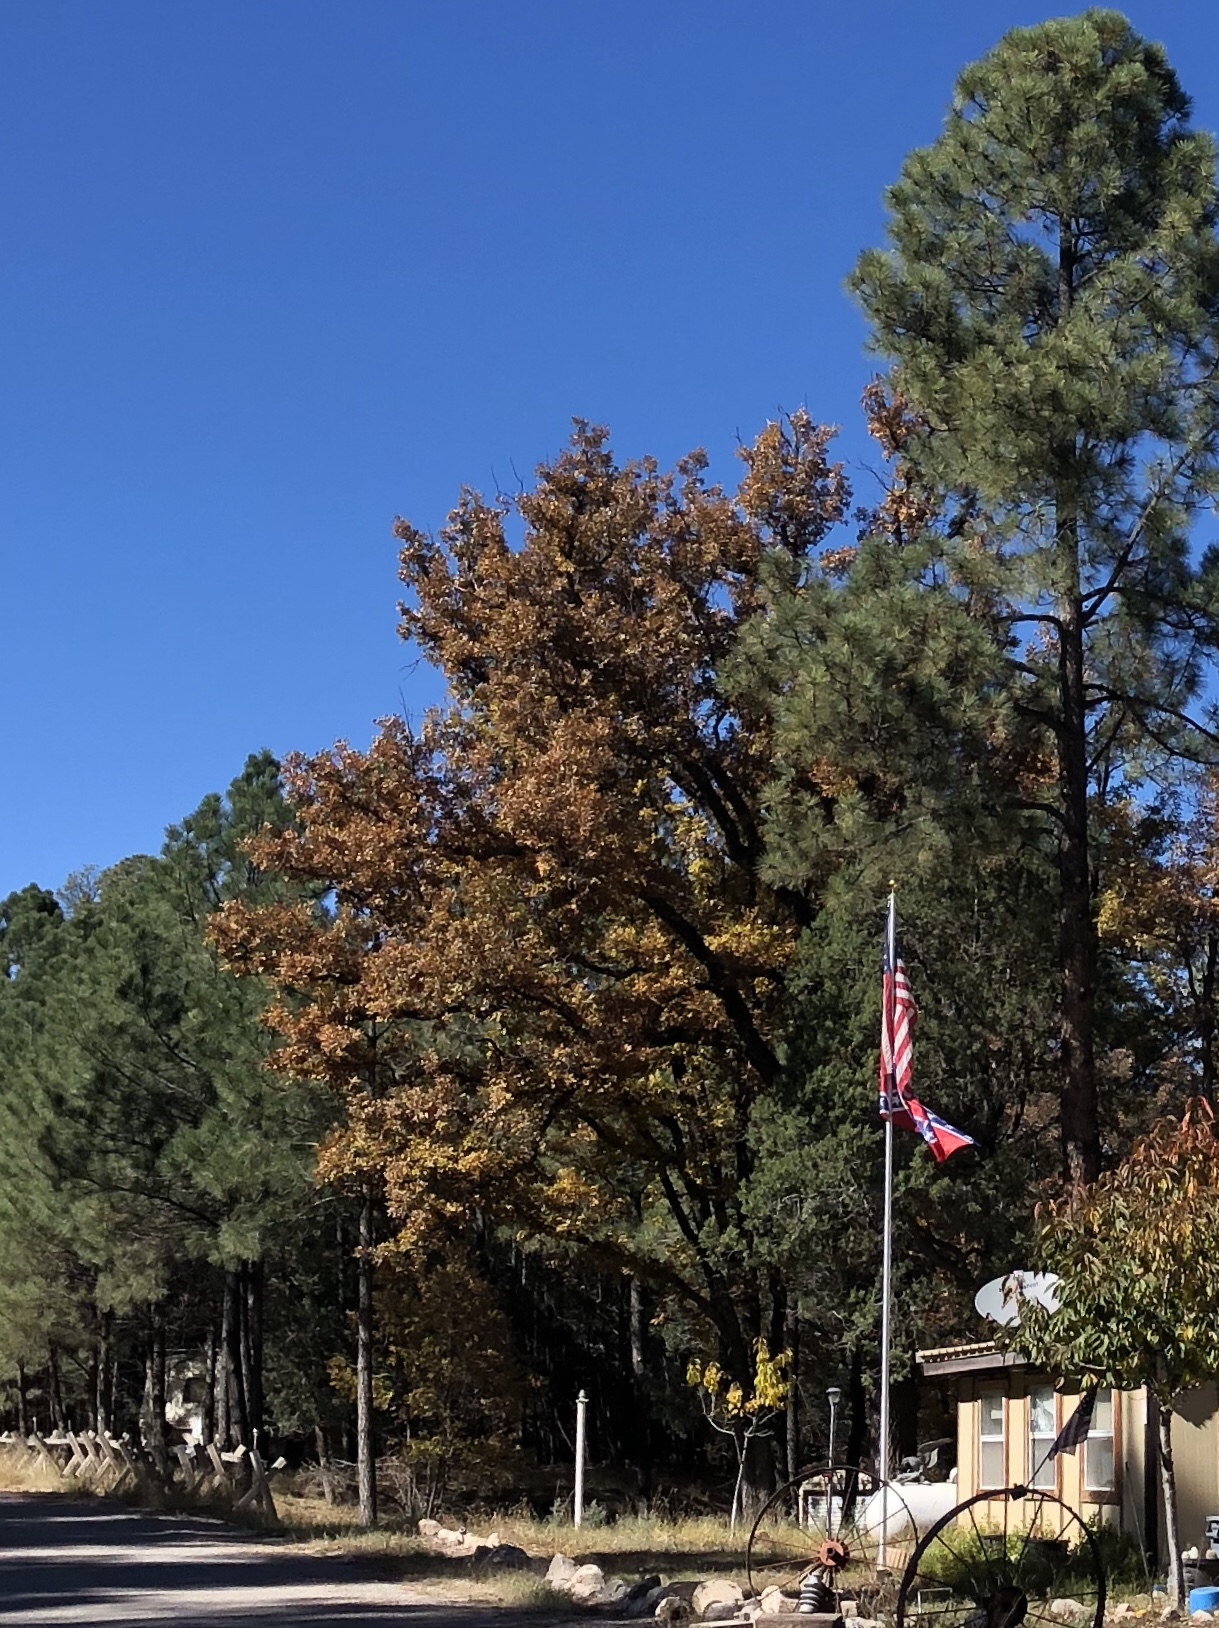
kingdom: Plantae
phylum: Tracheophyta
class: Magnoliopsida
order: Fagales
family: Fagaceae
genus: Quercus
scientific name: Quercus gambelii
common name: Gambel oak
